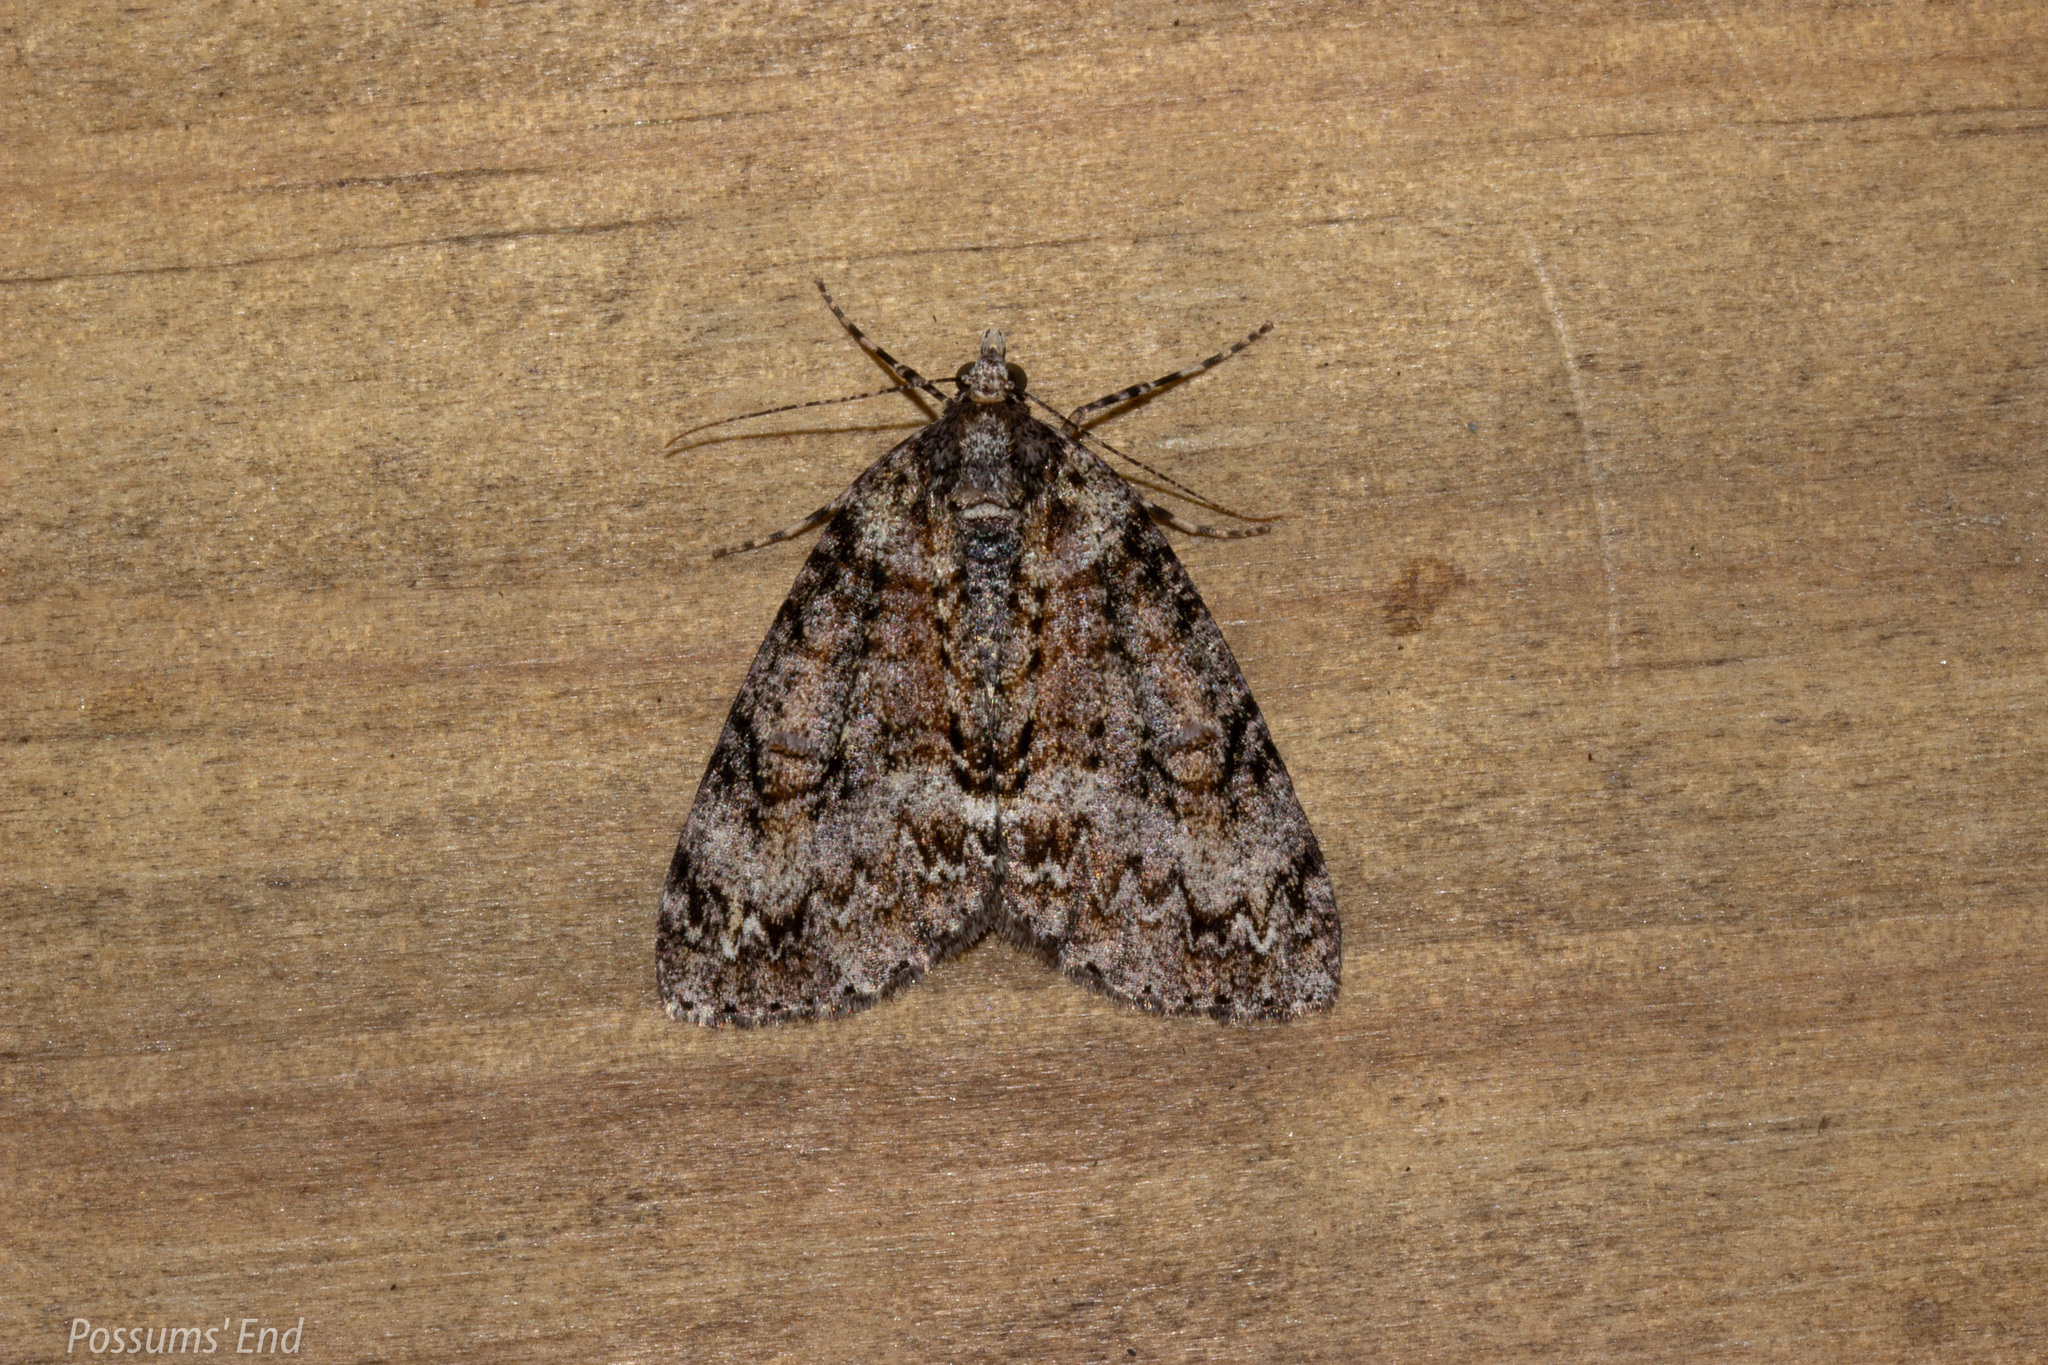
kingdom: Animalia
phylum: Arthropoda
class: Insecta
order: Lepidoptera
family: Geometridae
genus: Pseudocoremia
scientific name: Pseudocoremia suavis
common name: Common forest looper
